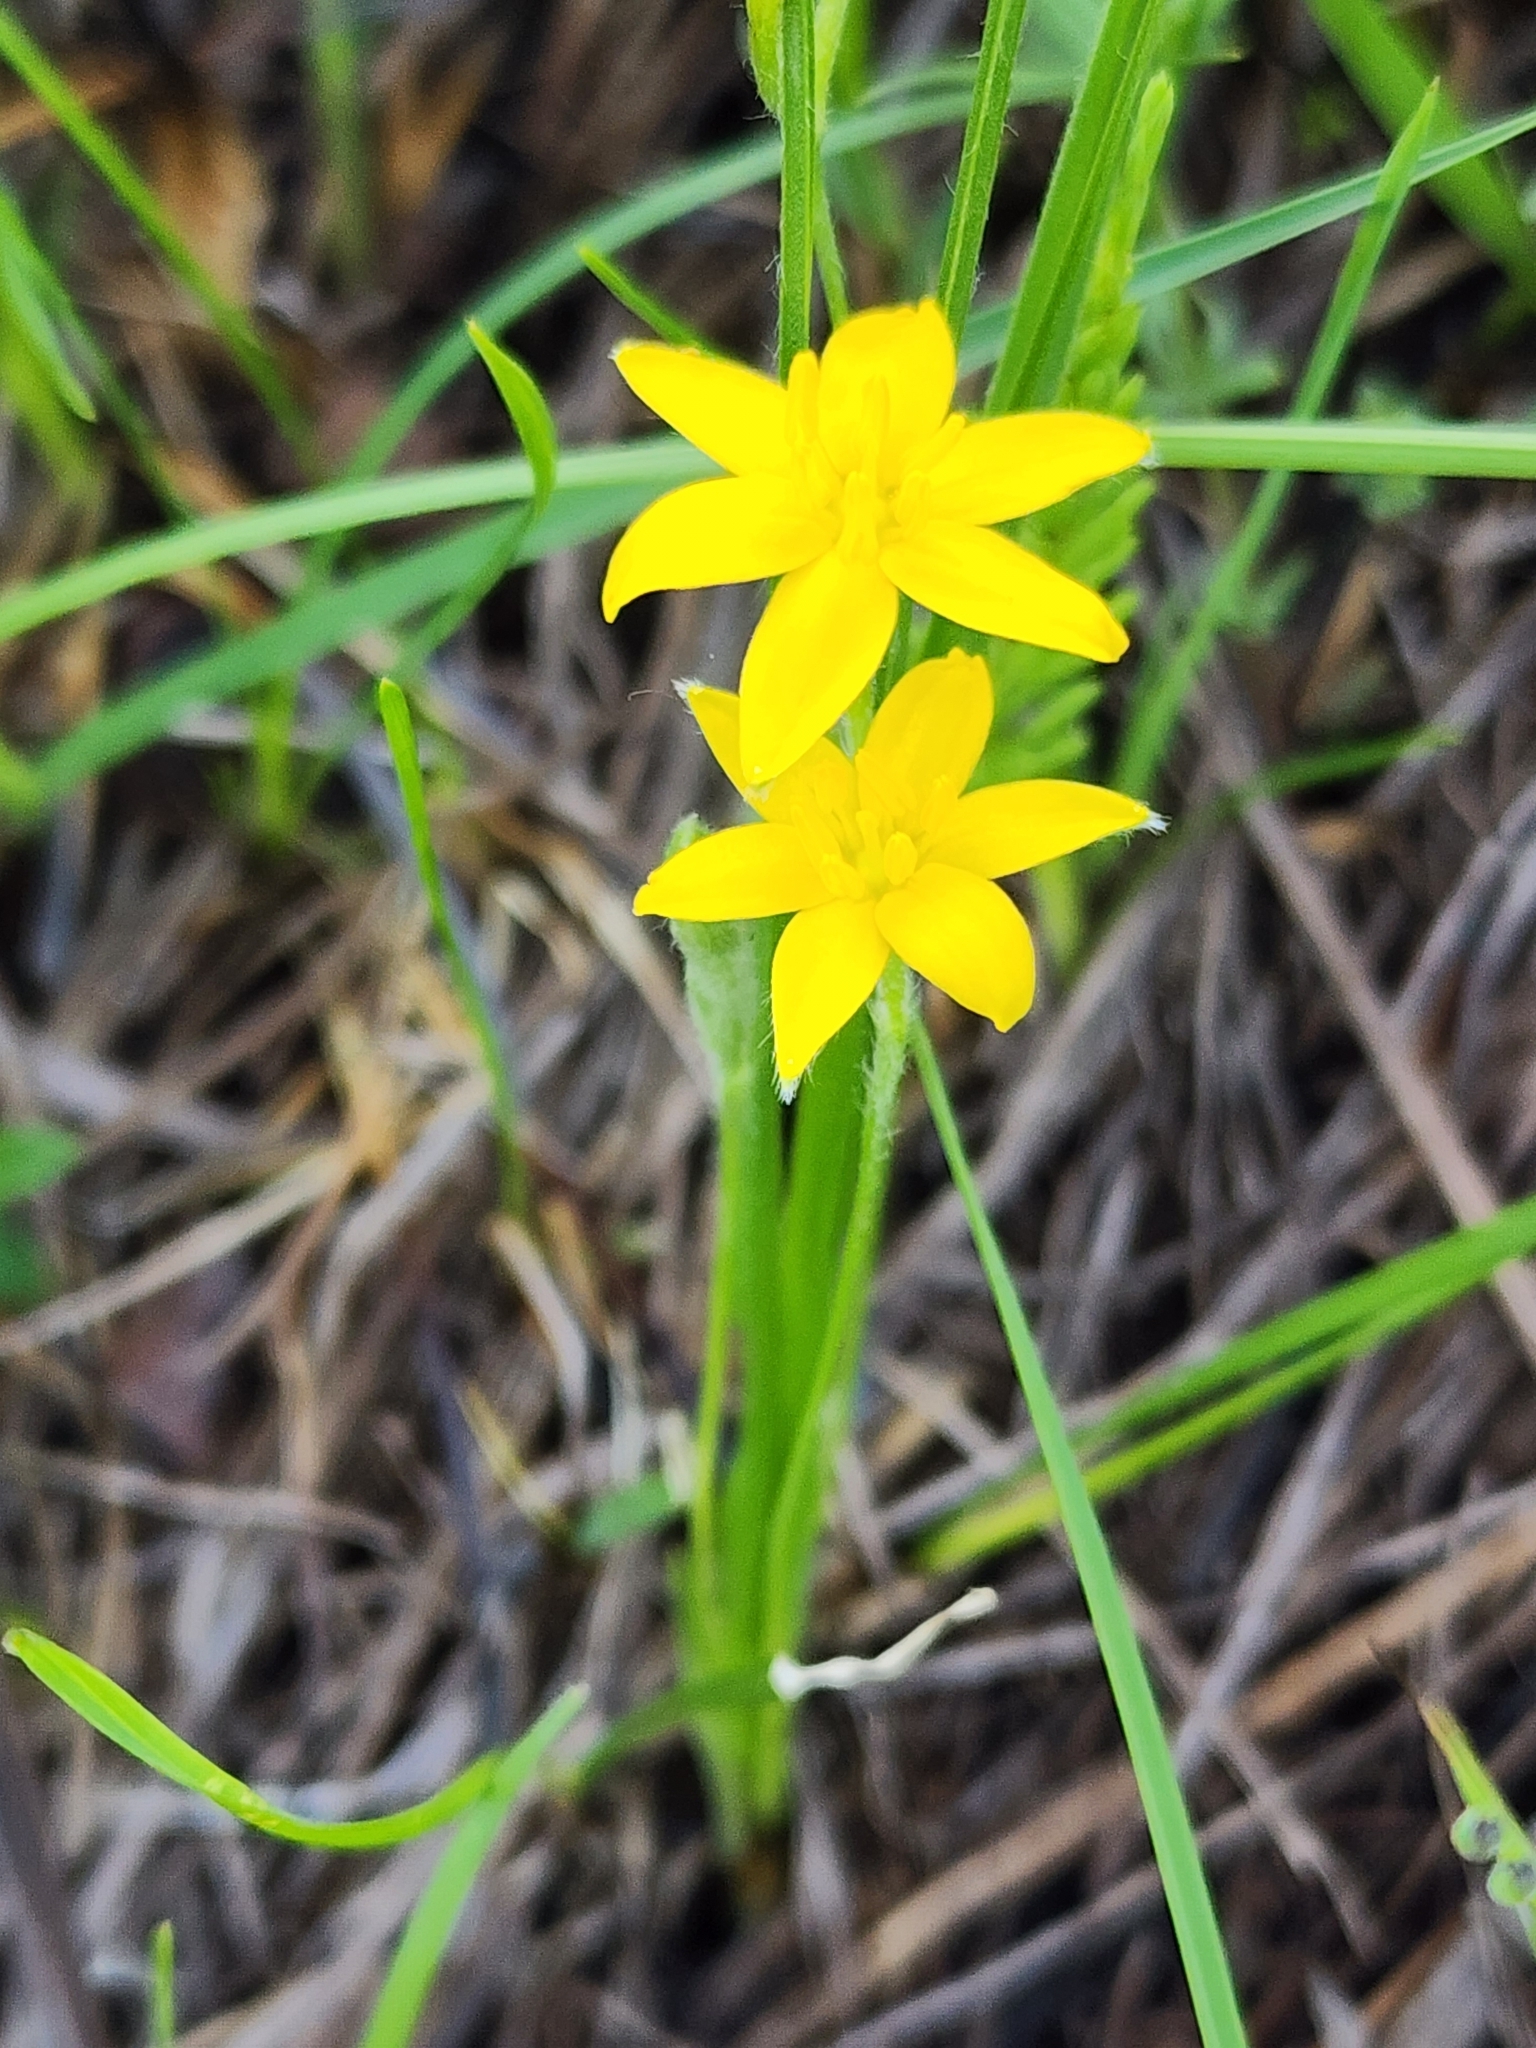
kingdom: Plantae
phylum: Tracheophyta
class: Liliopsida
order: Asparagales
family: Hypoxidaceae
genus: Hypoxis
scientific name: Hypoxis hirsuta
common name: Common goldstar
